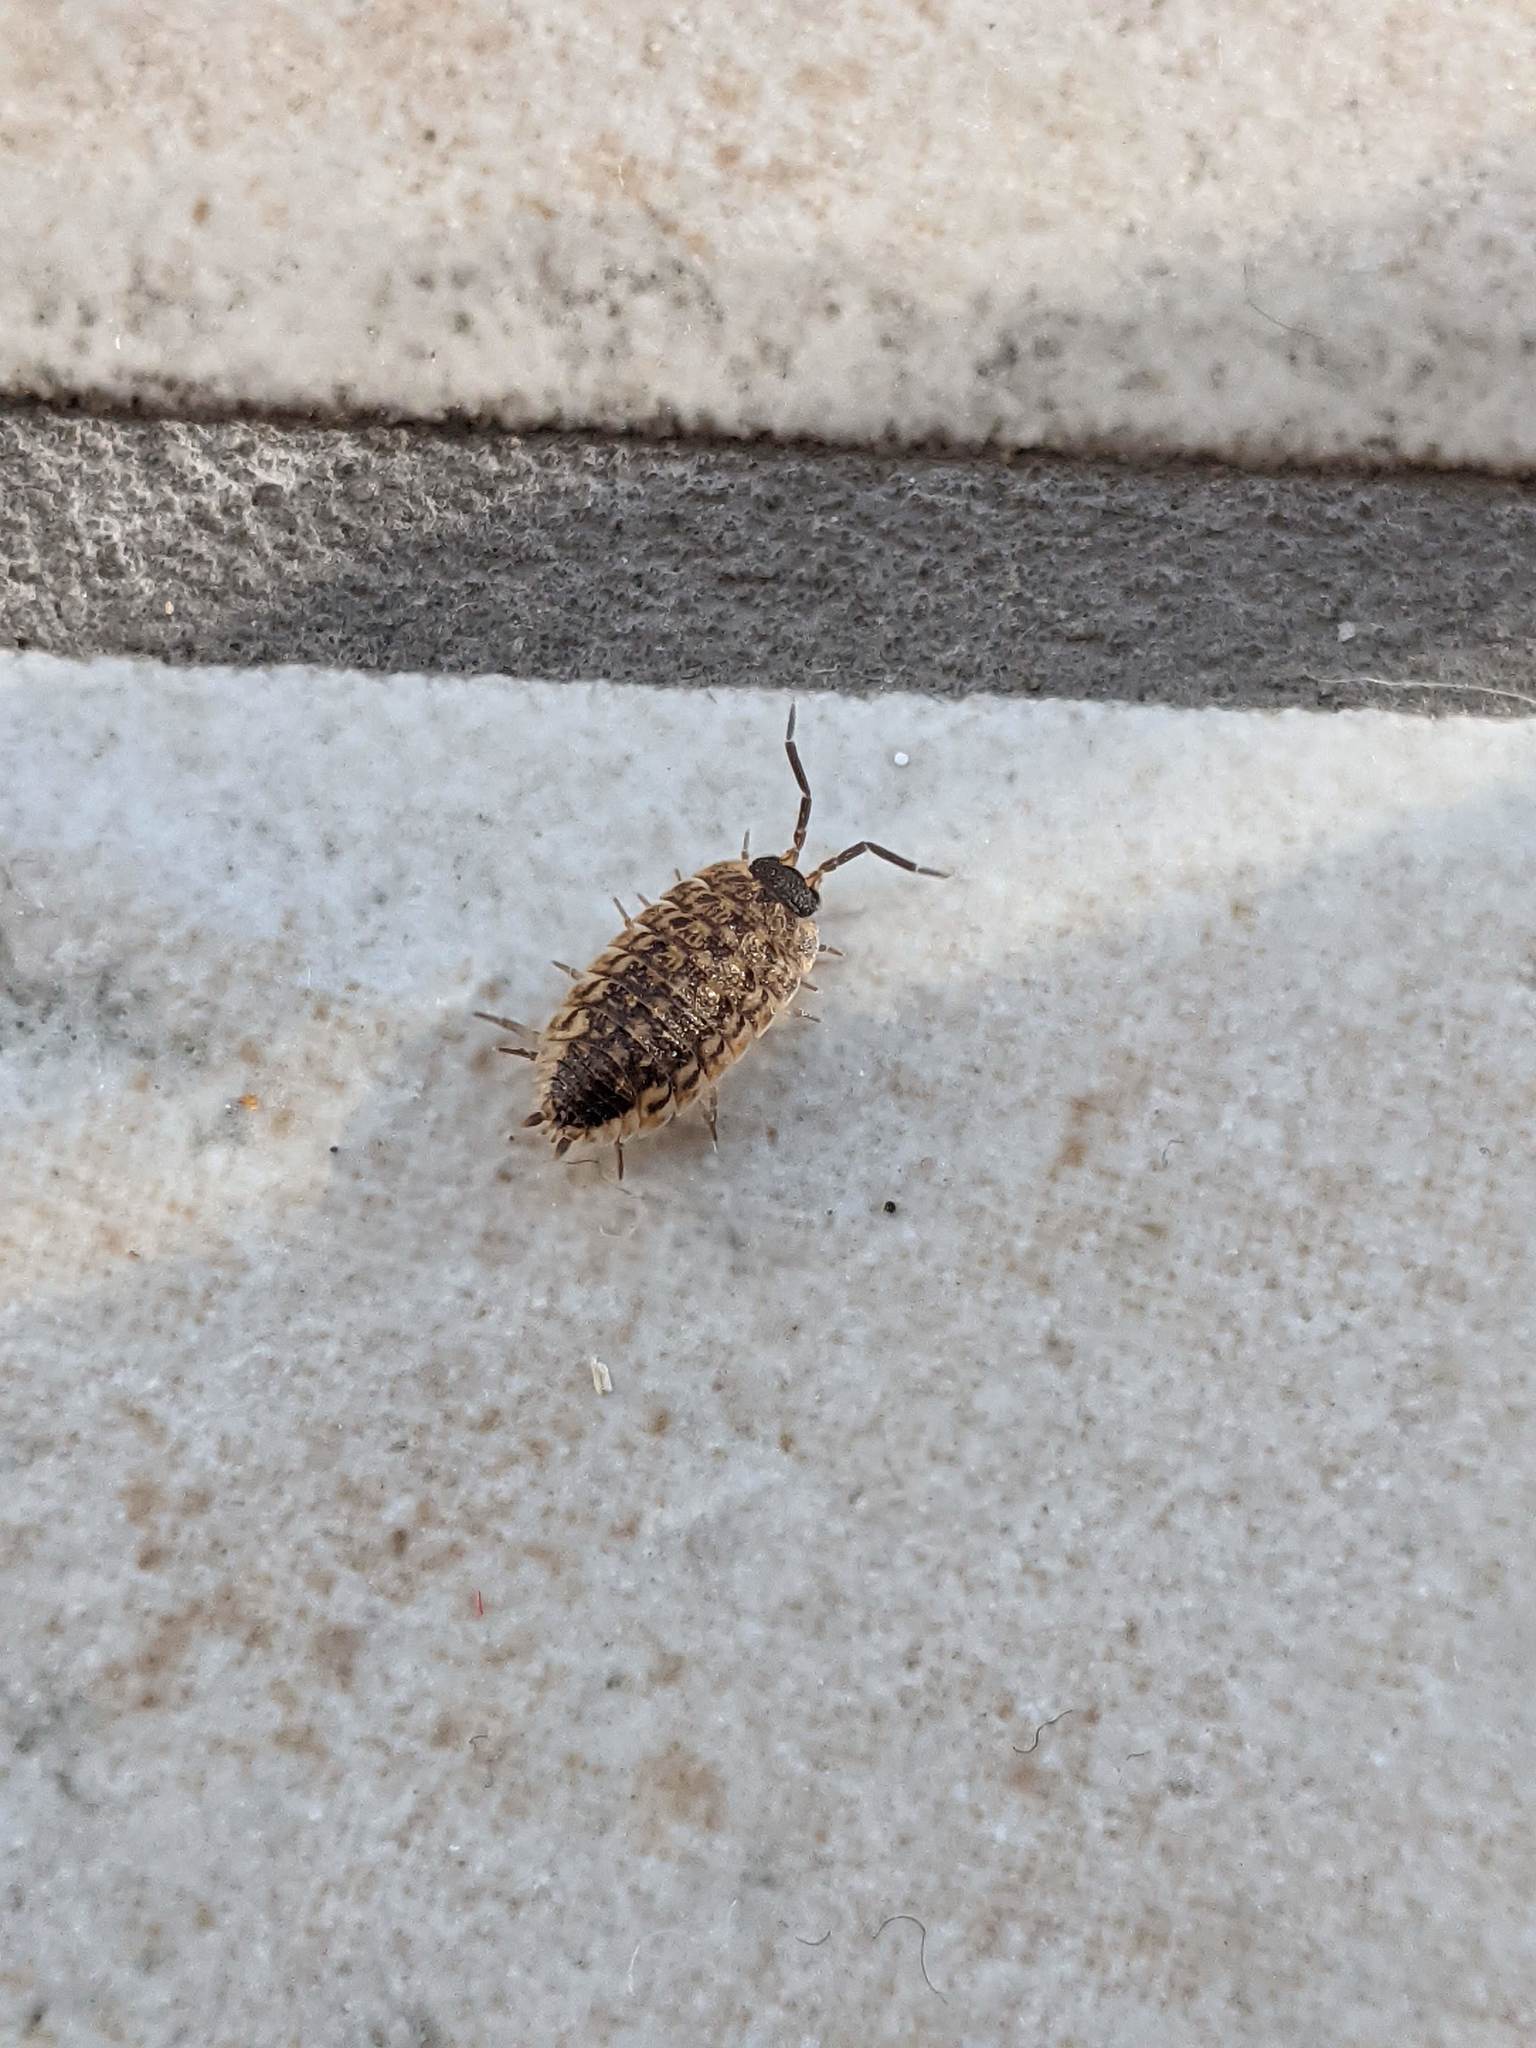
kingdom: Animalia
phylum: Arthropoda
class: Malacostraca
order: Isopoda
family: Porcellionidae
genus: Porcellio
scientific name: Porcellio spinicornis
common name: Painted woodlouse
